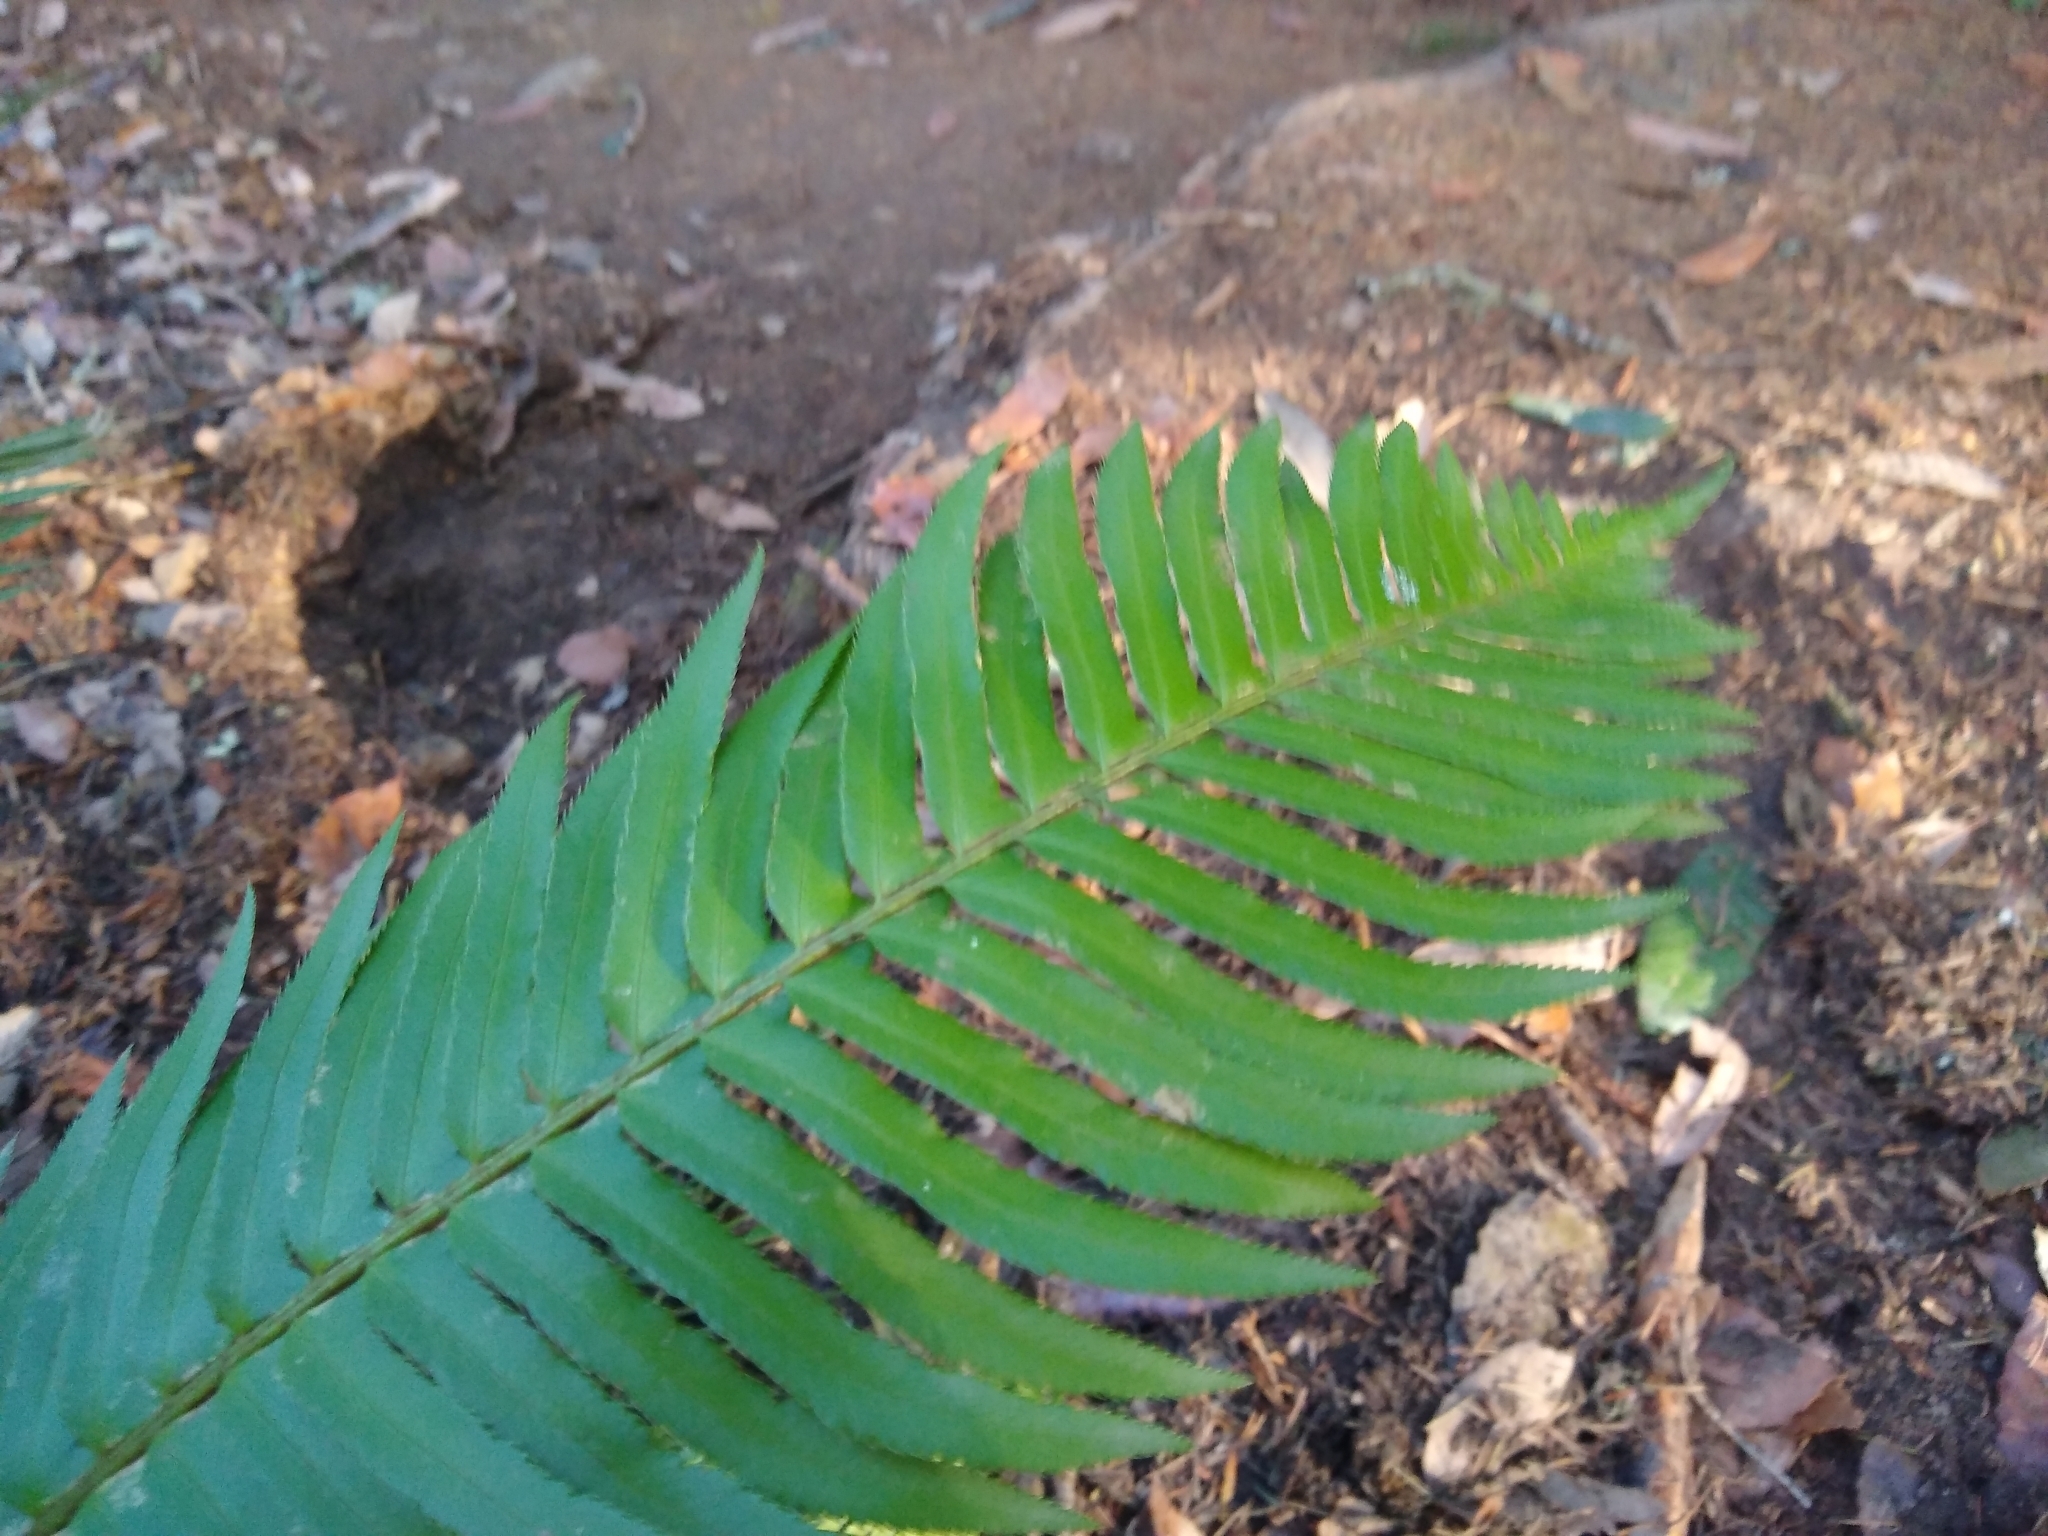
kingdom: Plantae
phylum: Tracheophyta
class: Polypodiopsida
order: Polypodiales
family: Dryopteridaceae
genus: Polystichum
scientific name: Polystichum munitum
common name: Western sword-fern
